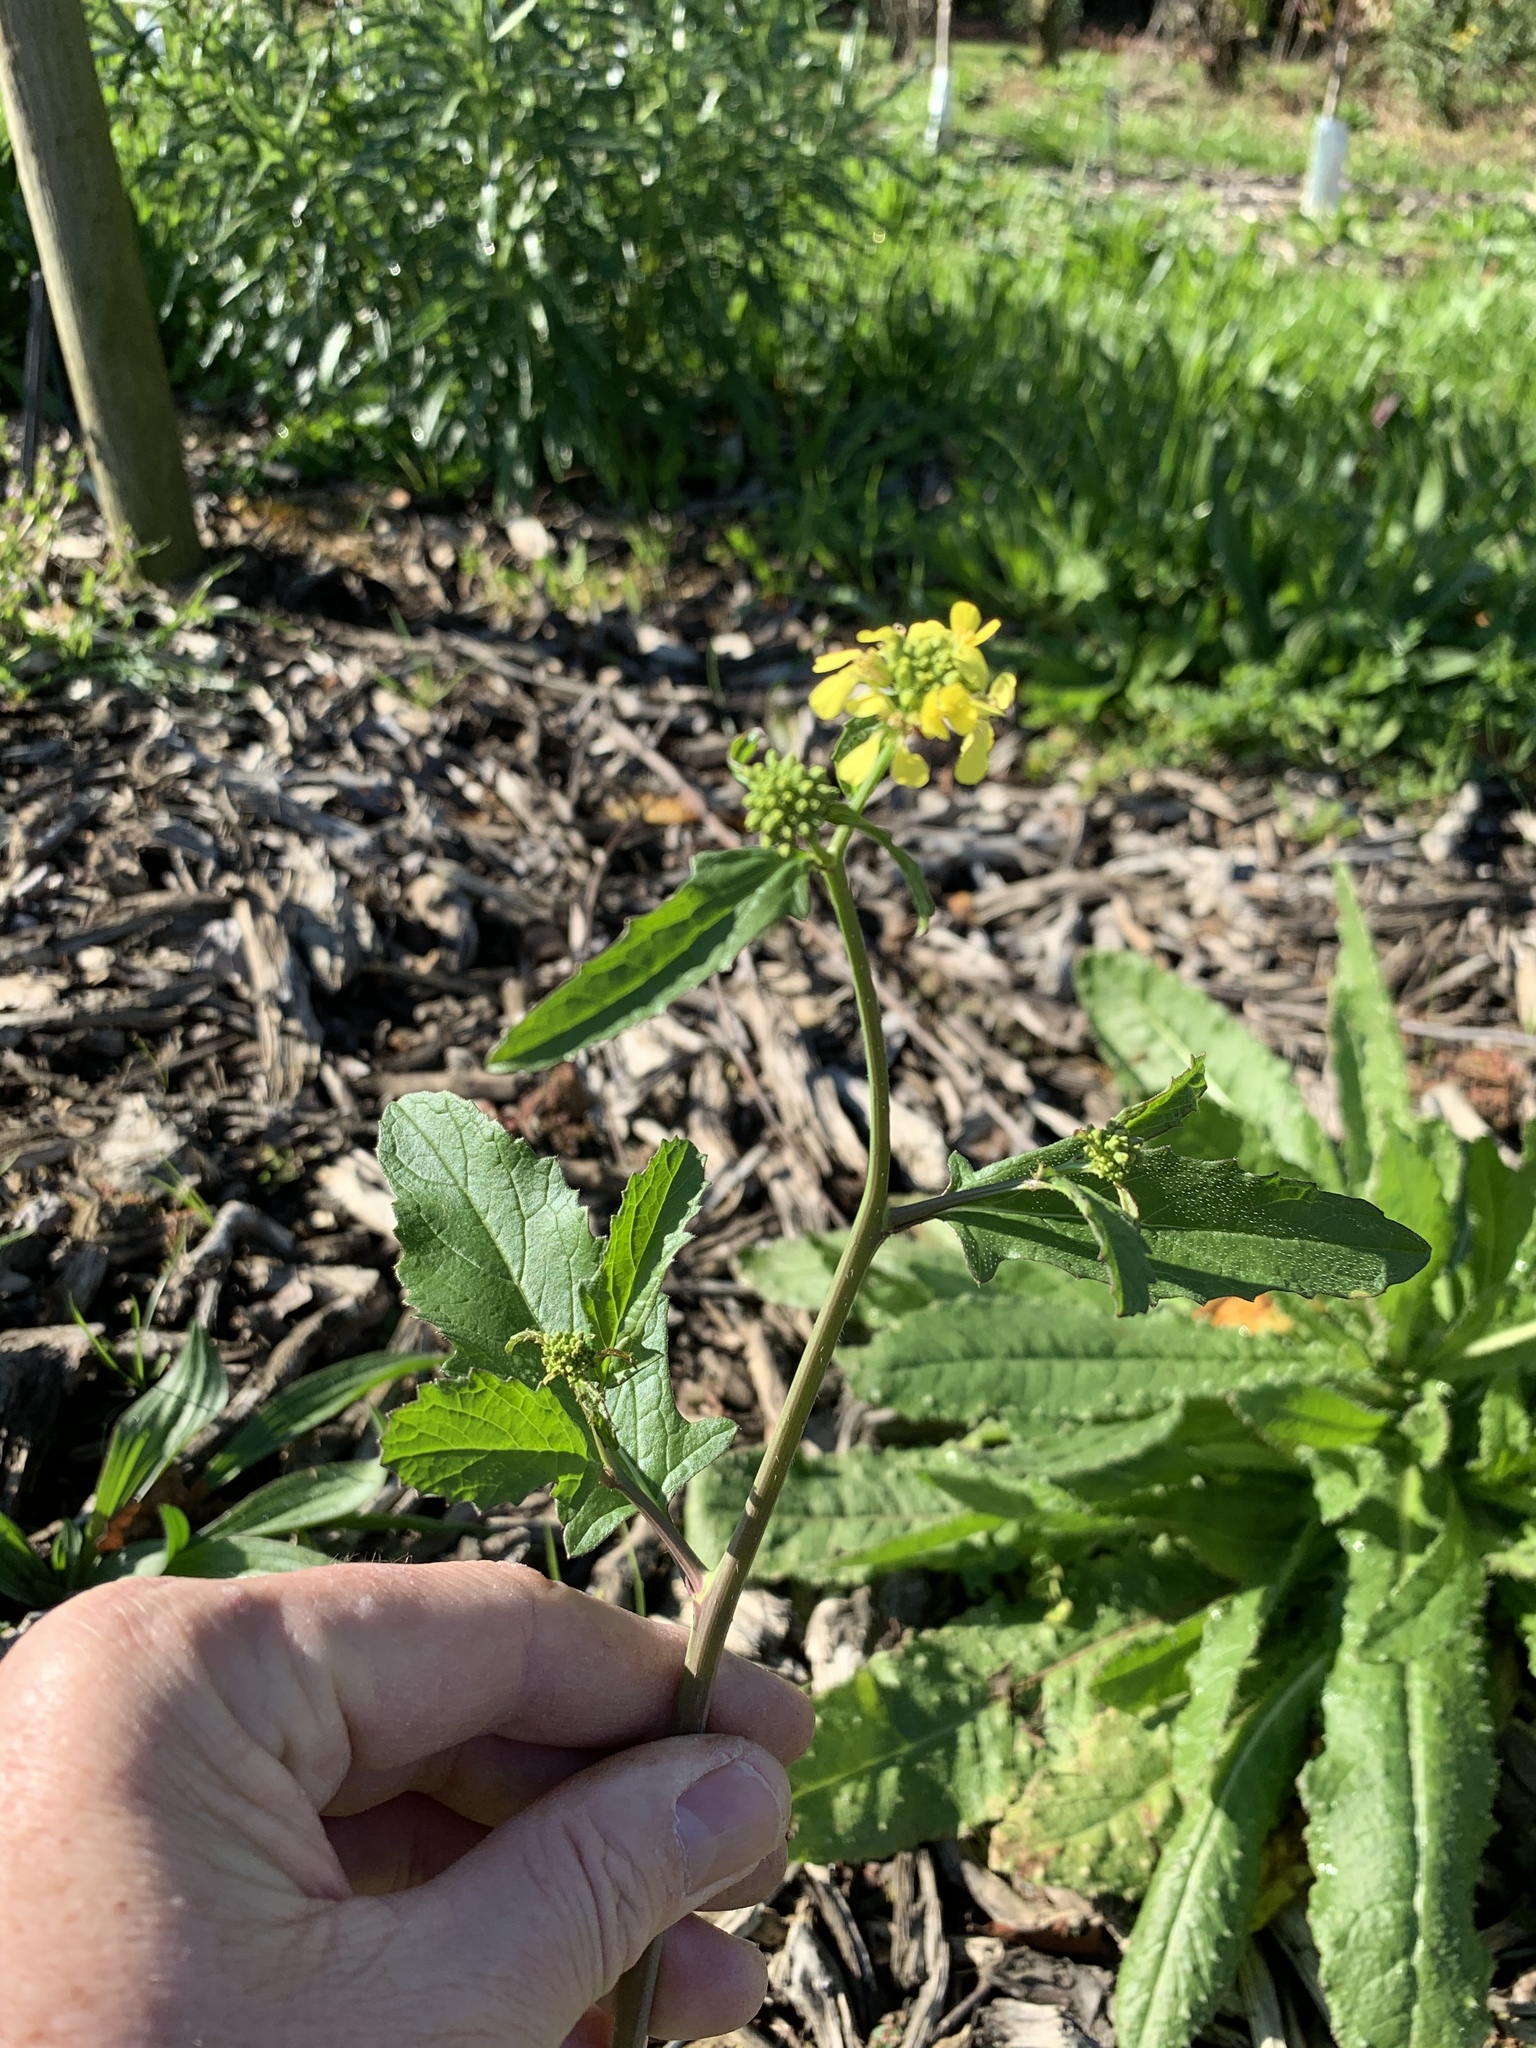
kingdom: Plantae
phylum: Tracheophyta
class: Magnoliopsida
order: Brassicales
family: Brassicaceae
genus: Rapistrum
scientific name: Rapistrum rugosum
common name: Annual bastardcabbage
